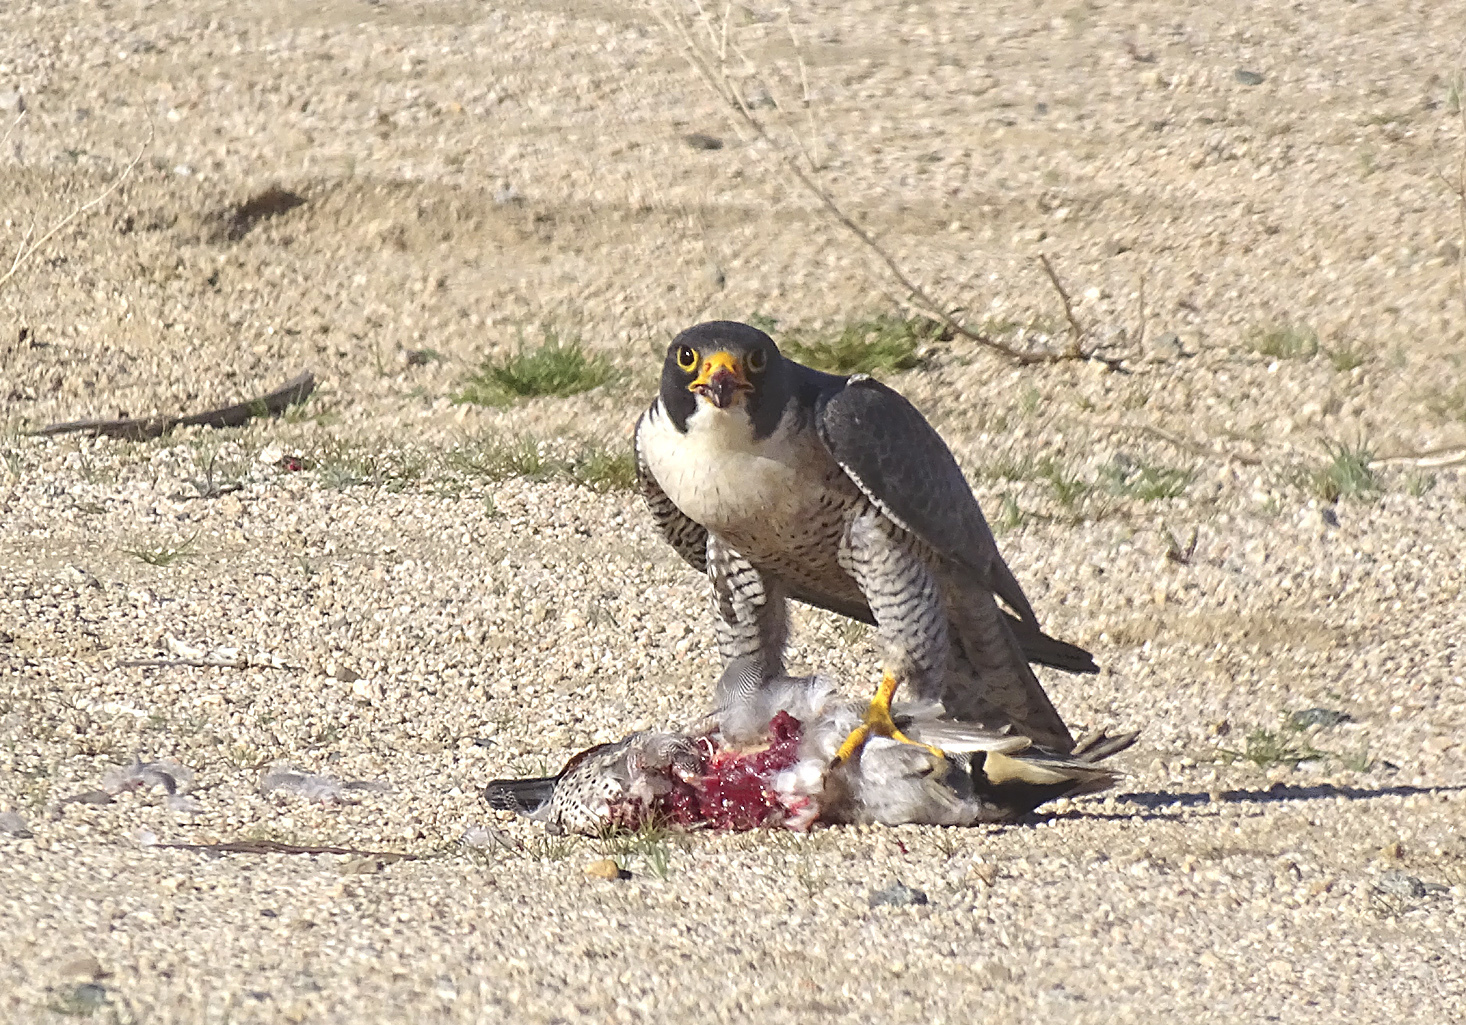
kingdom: Animalia
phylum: Chordata
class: Aves
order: Falconiformes
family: Falconidae
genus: Falco
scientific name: Falco peregrinus
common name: Peregrine falcon
